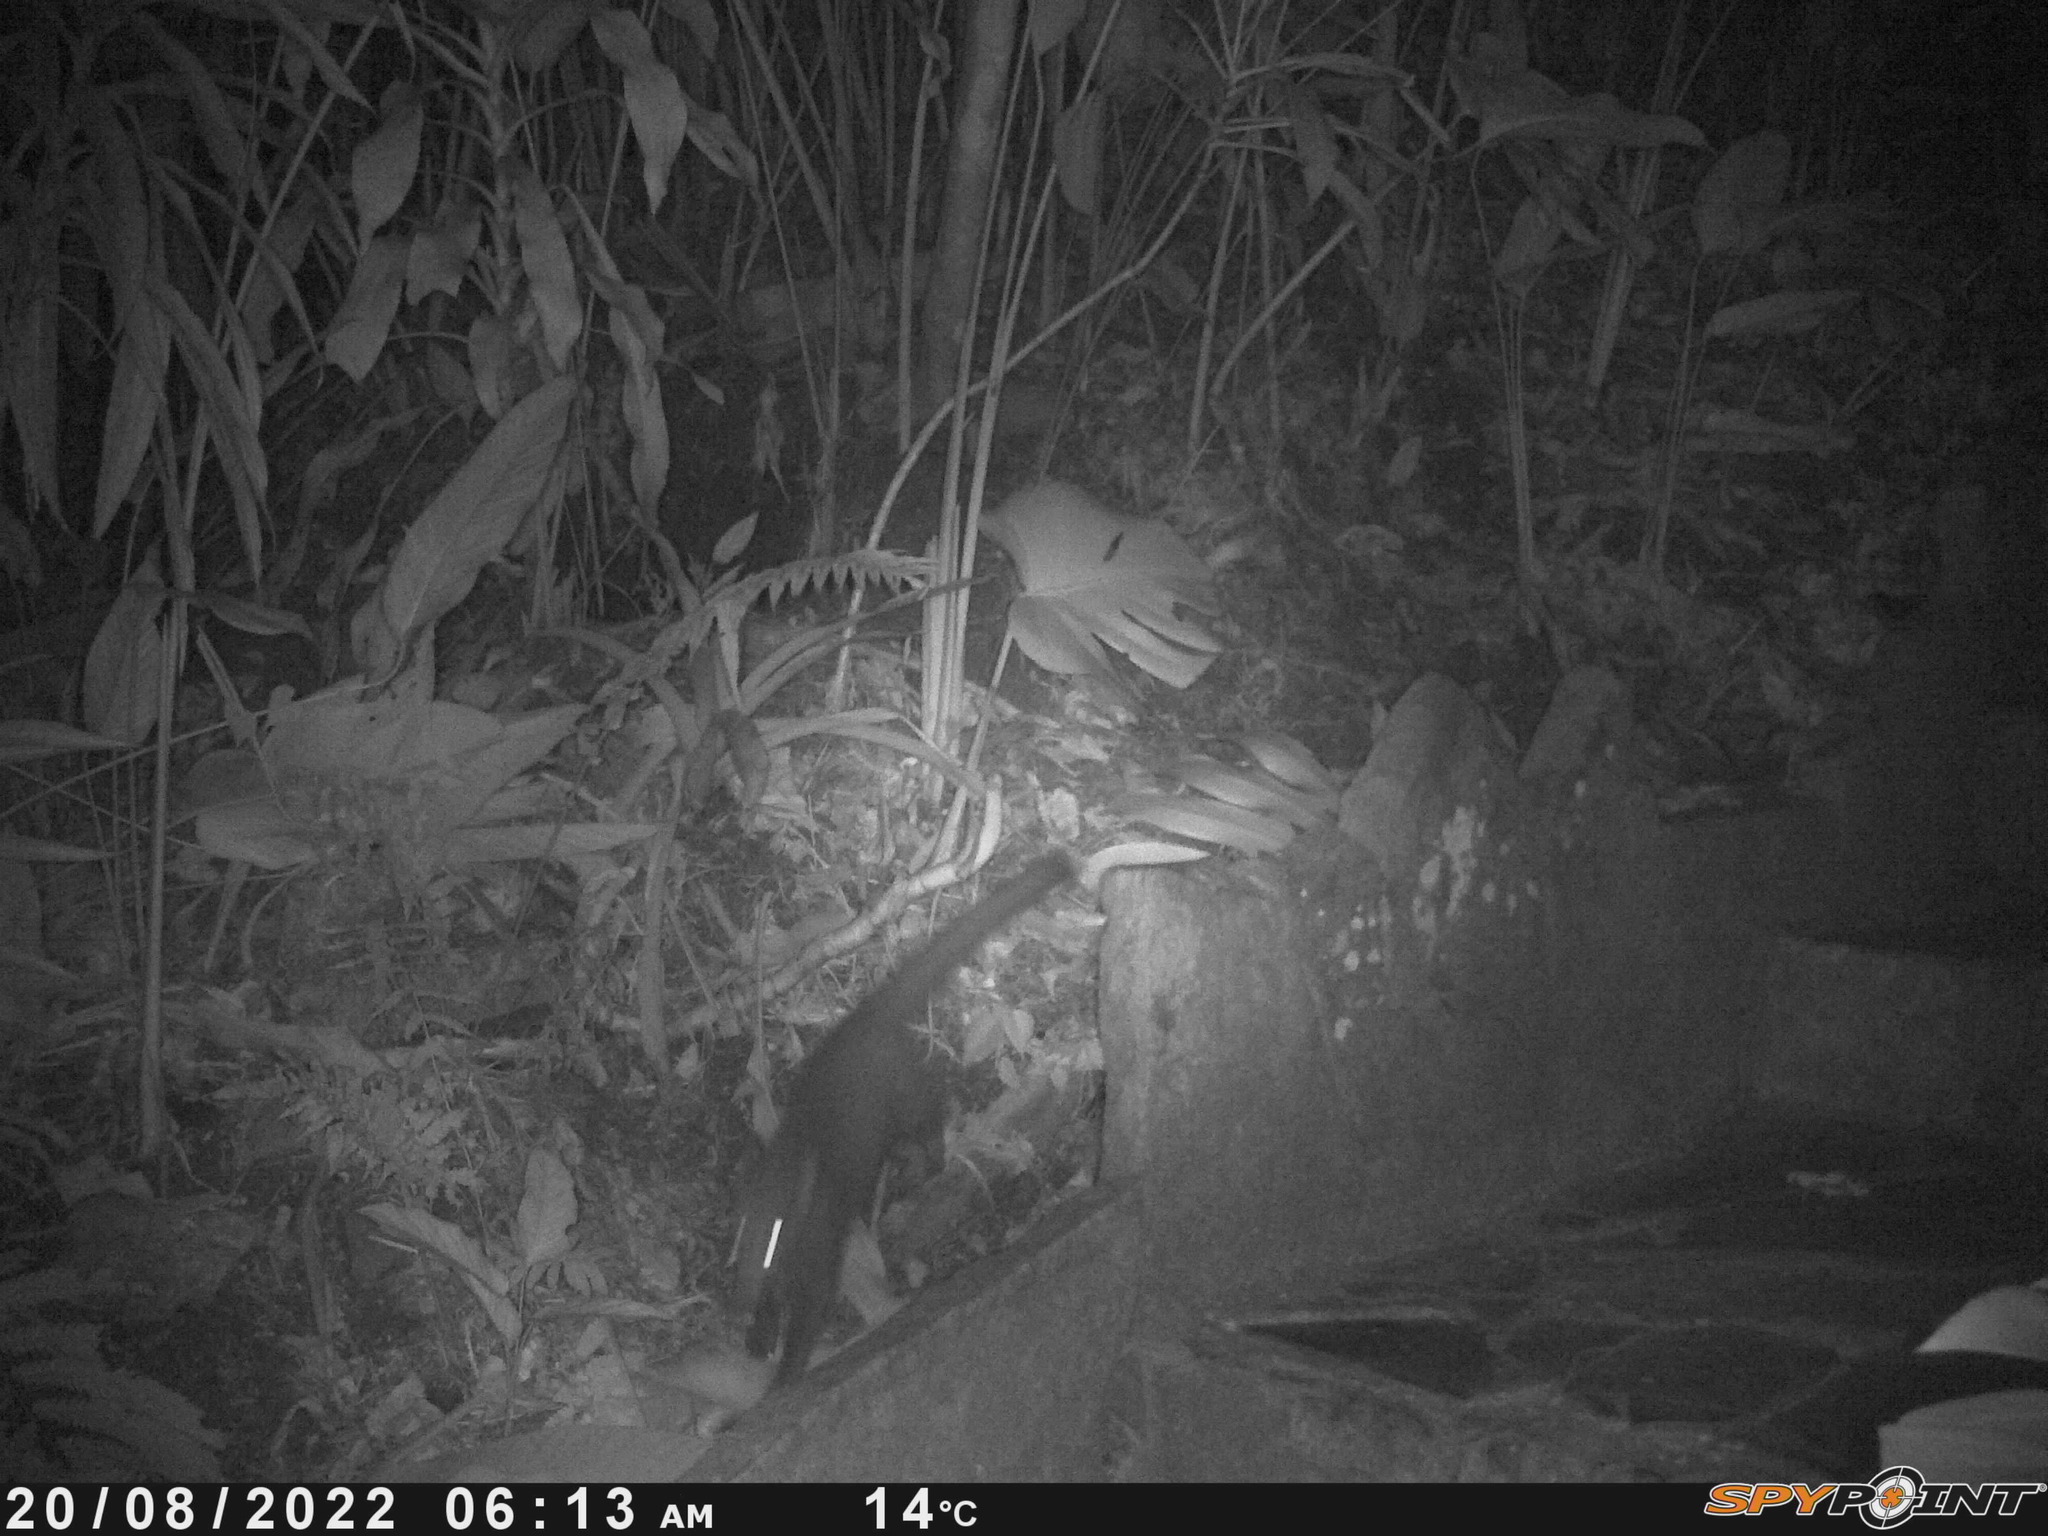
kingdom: Animalia
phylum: Chordata
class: Mammalia
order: Carnivora
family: Procyonidae
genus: Nasua
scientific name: Nasua narica
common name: White-nosed coati
